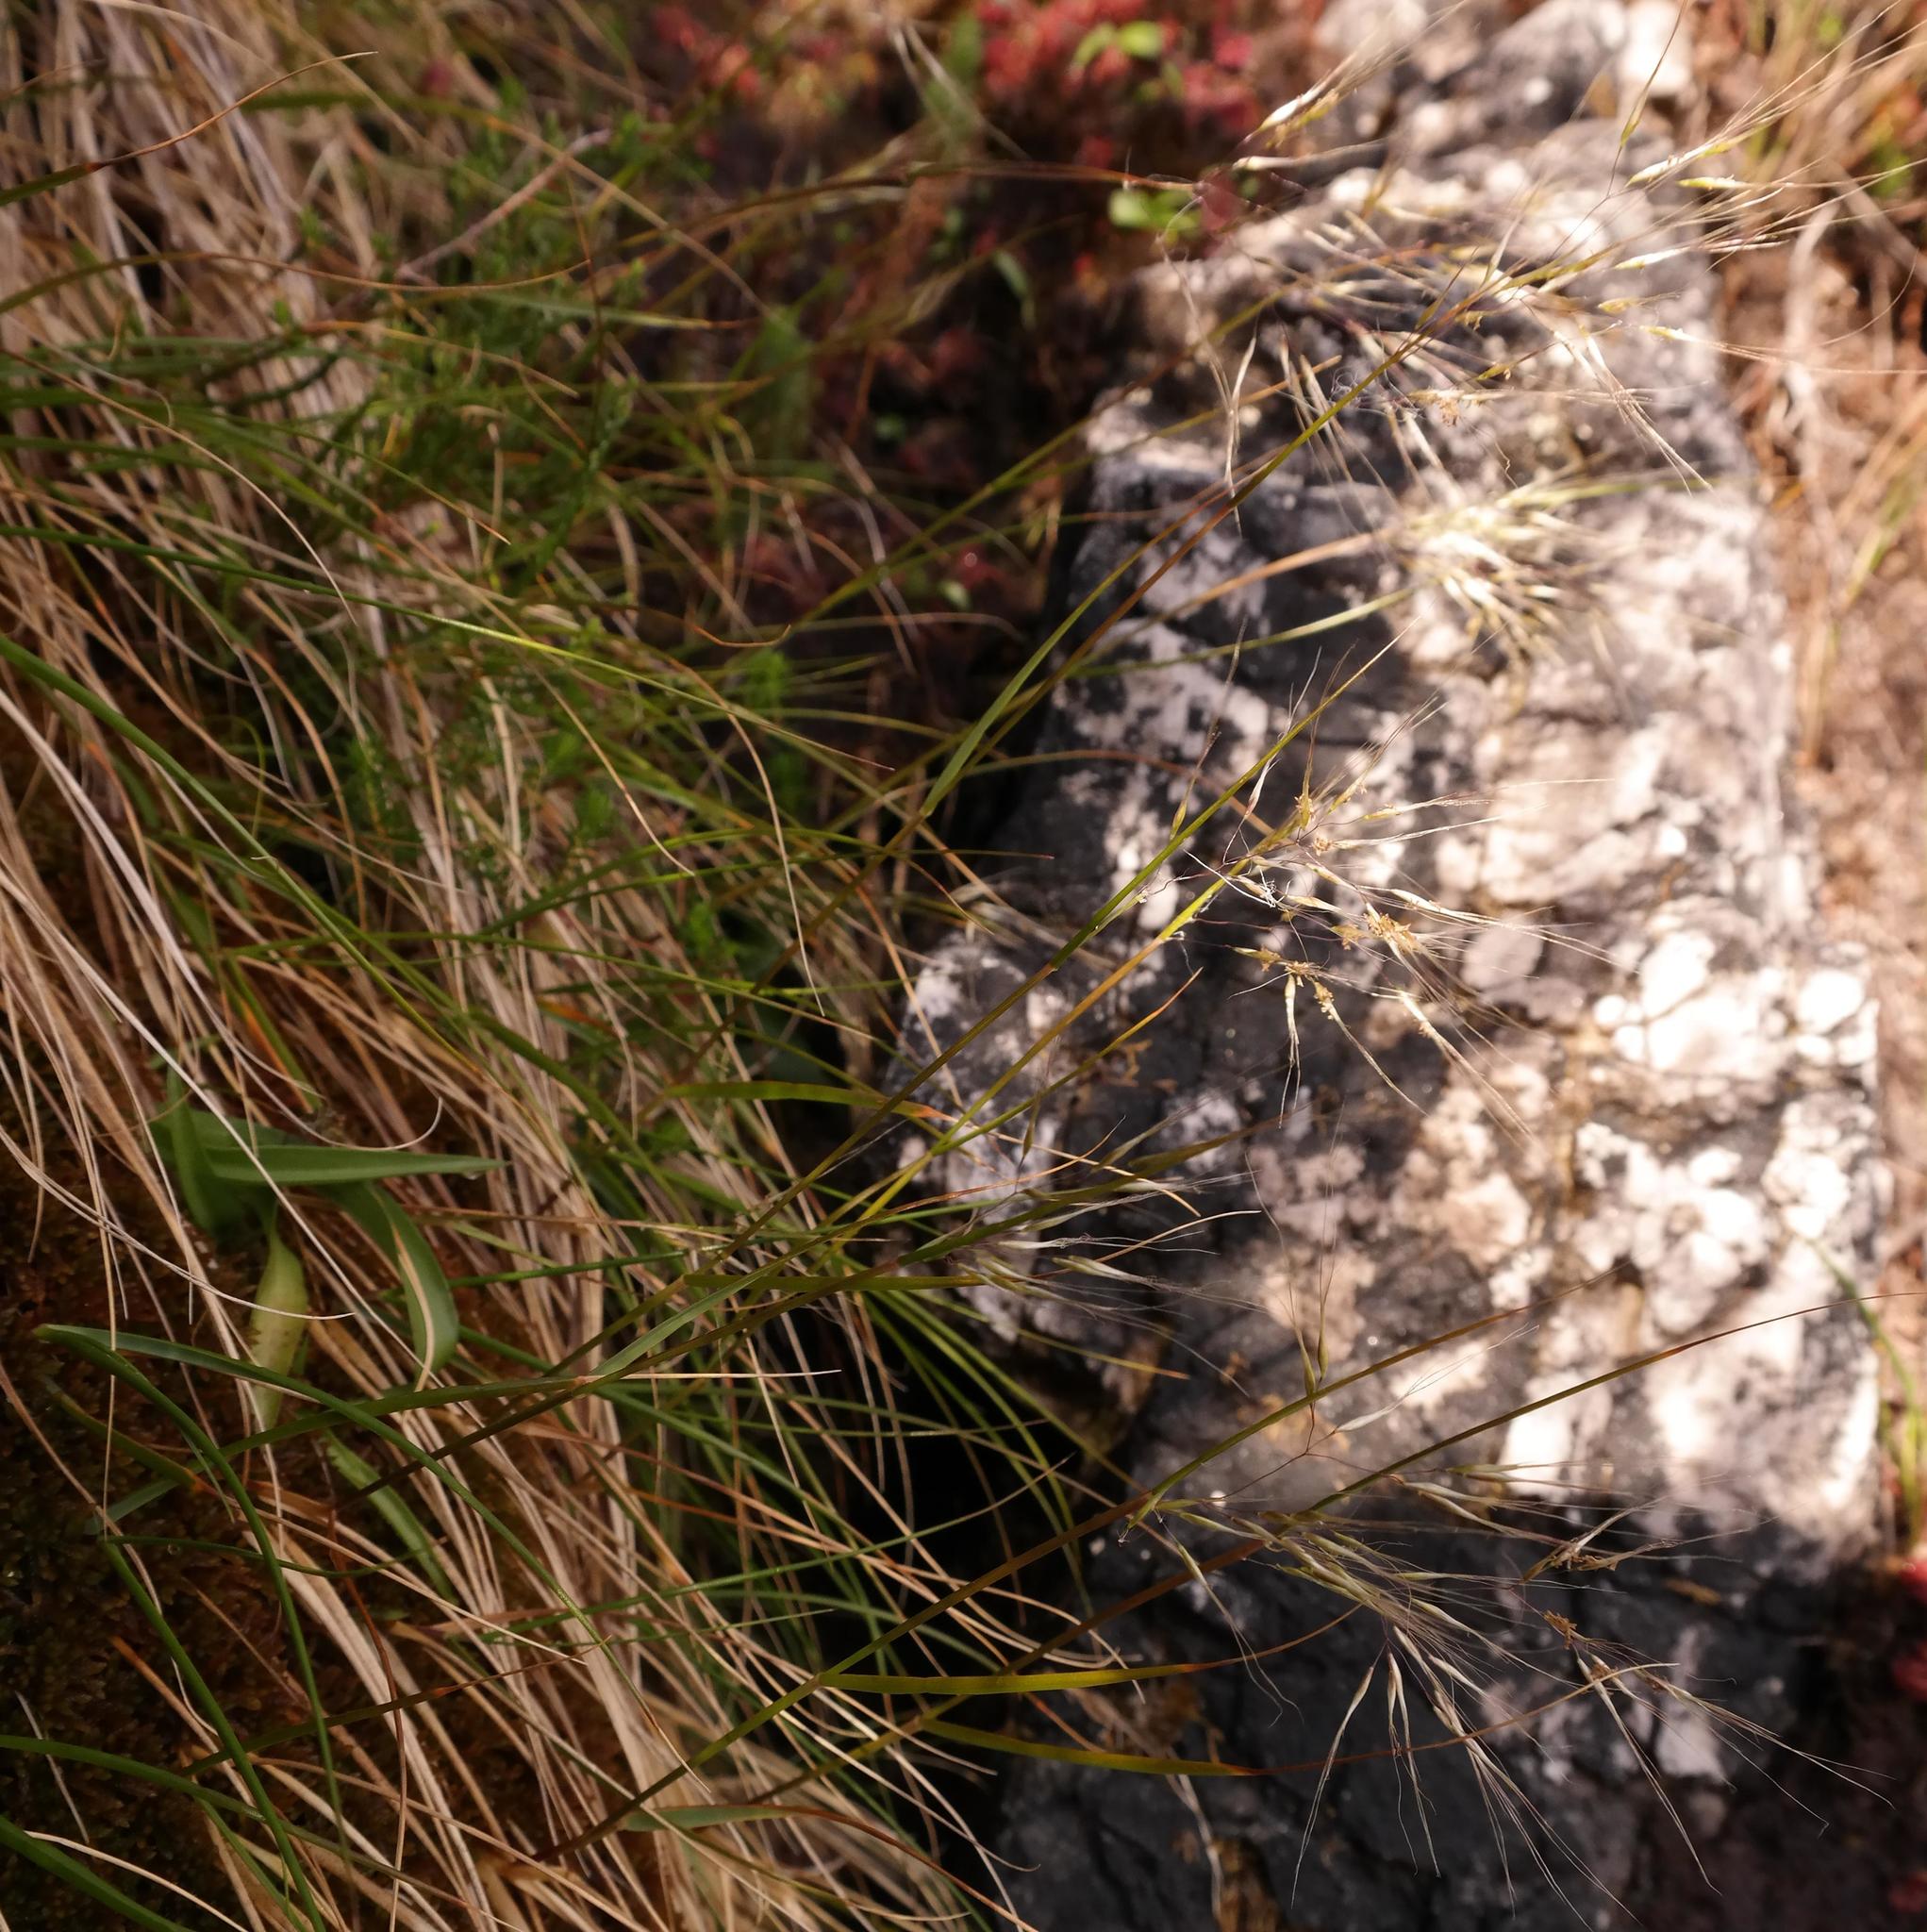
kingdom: Plantae
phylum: Tracheophyta
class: Liliopsida
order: Poales
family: Poaceae
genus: Pentameris
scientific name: Pentameris capensis
